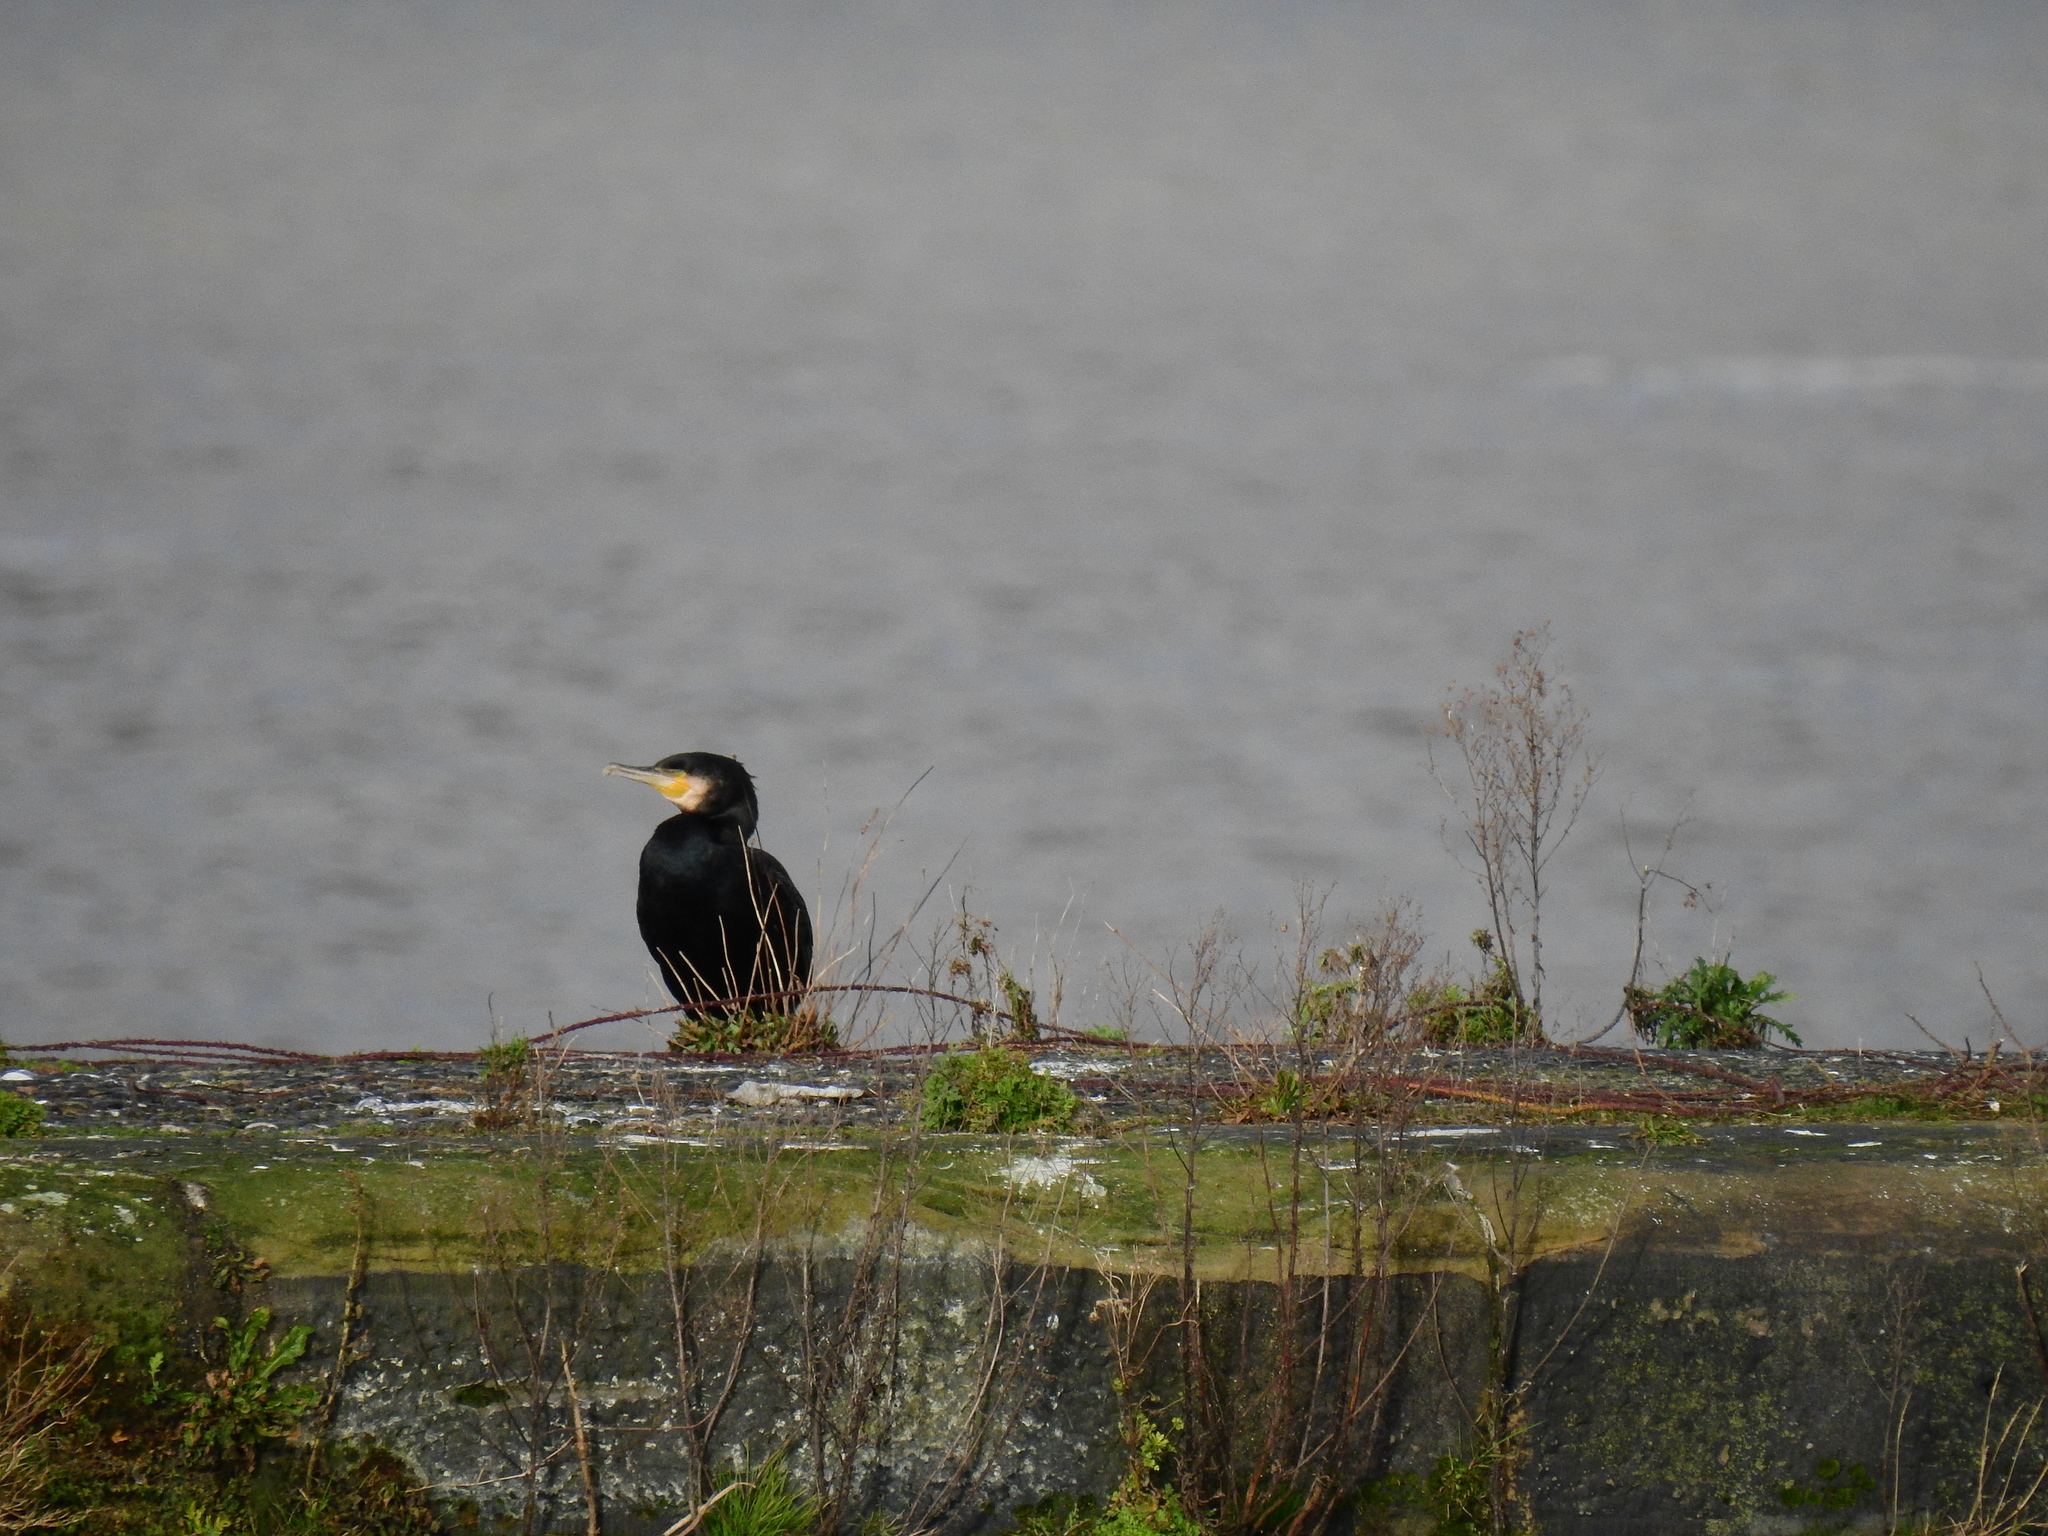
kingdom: Animalia
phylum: Chordata
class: Aves
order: Suliformes
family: Phalacrocoracidae
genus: Phalacrocorax
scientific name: Phalacrocorax carbo
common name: Great cormorant
